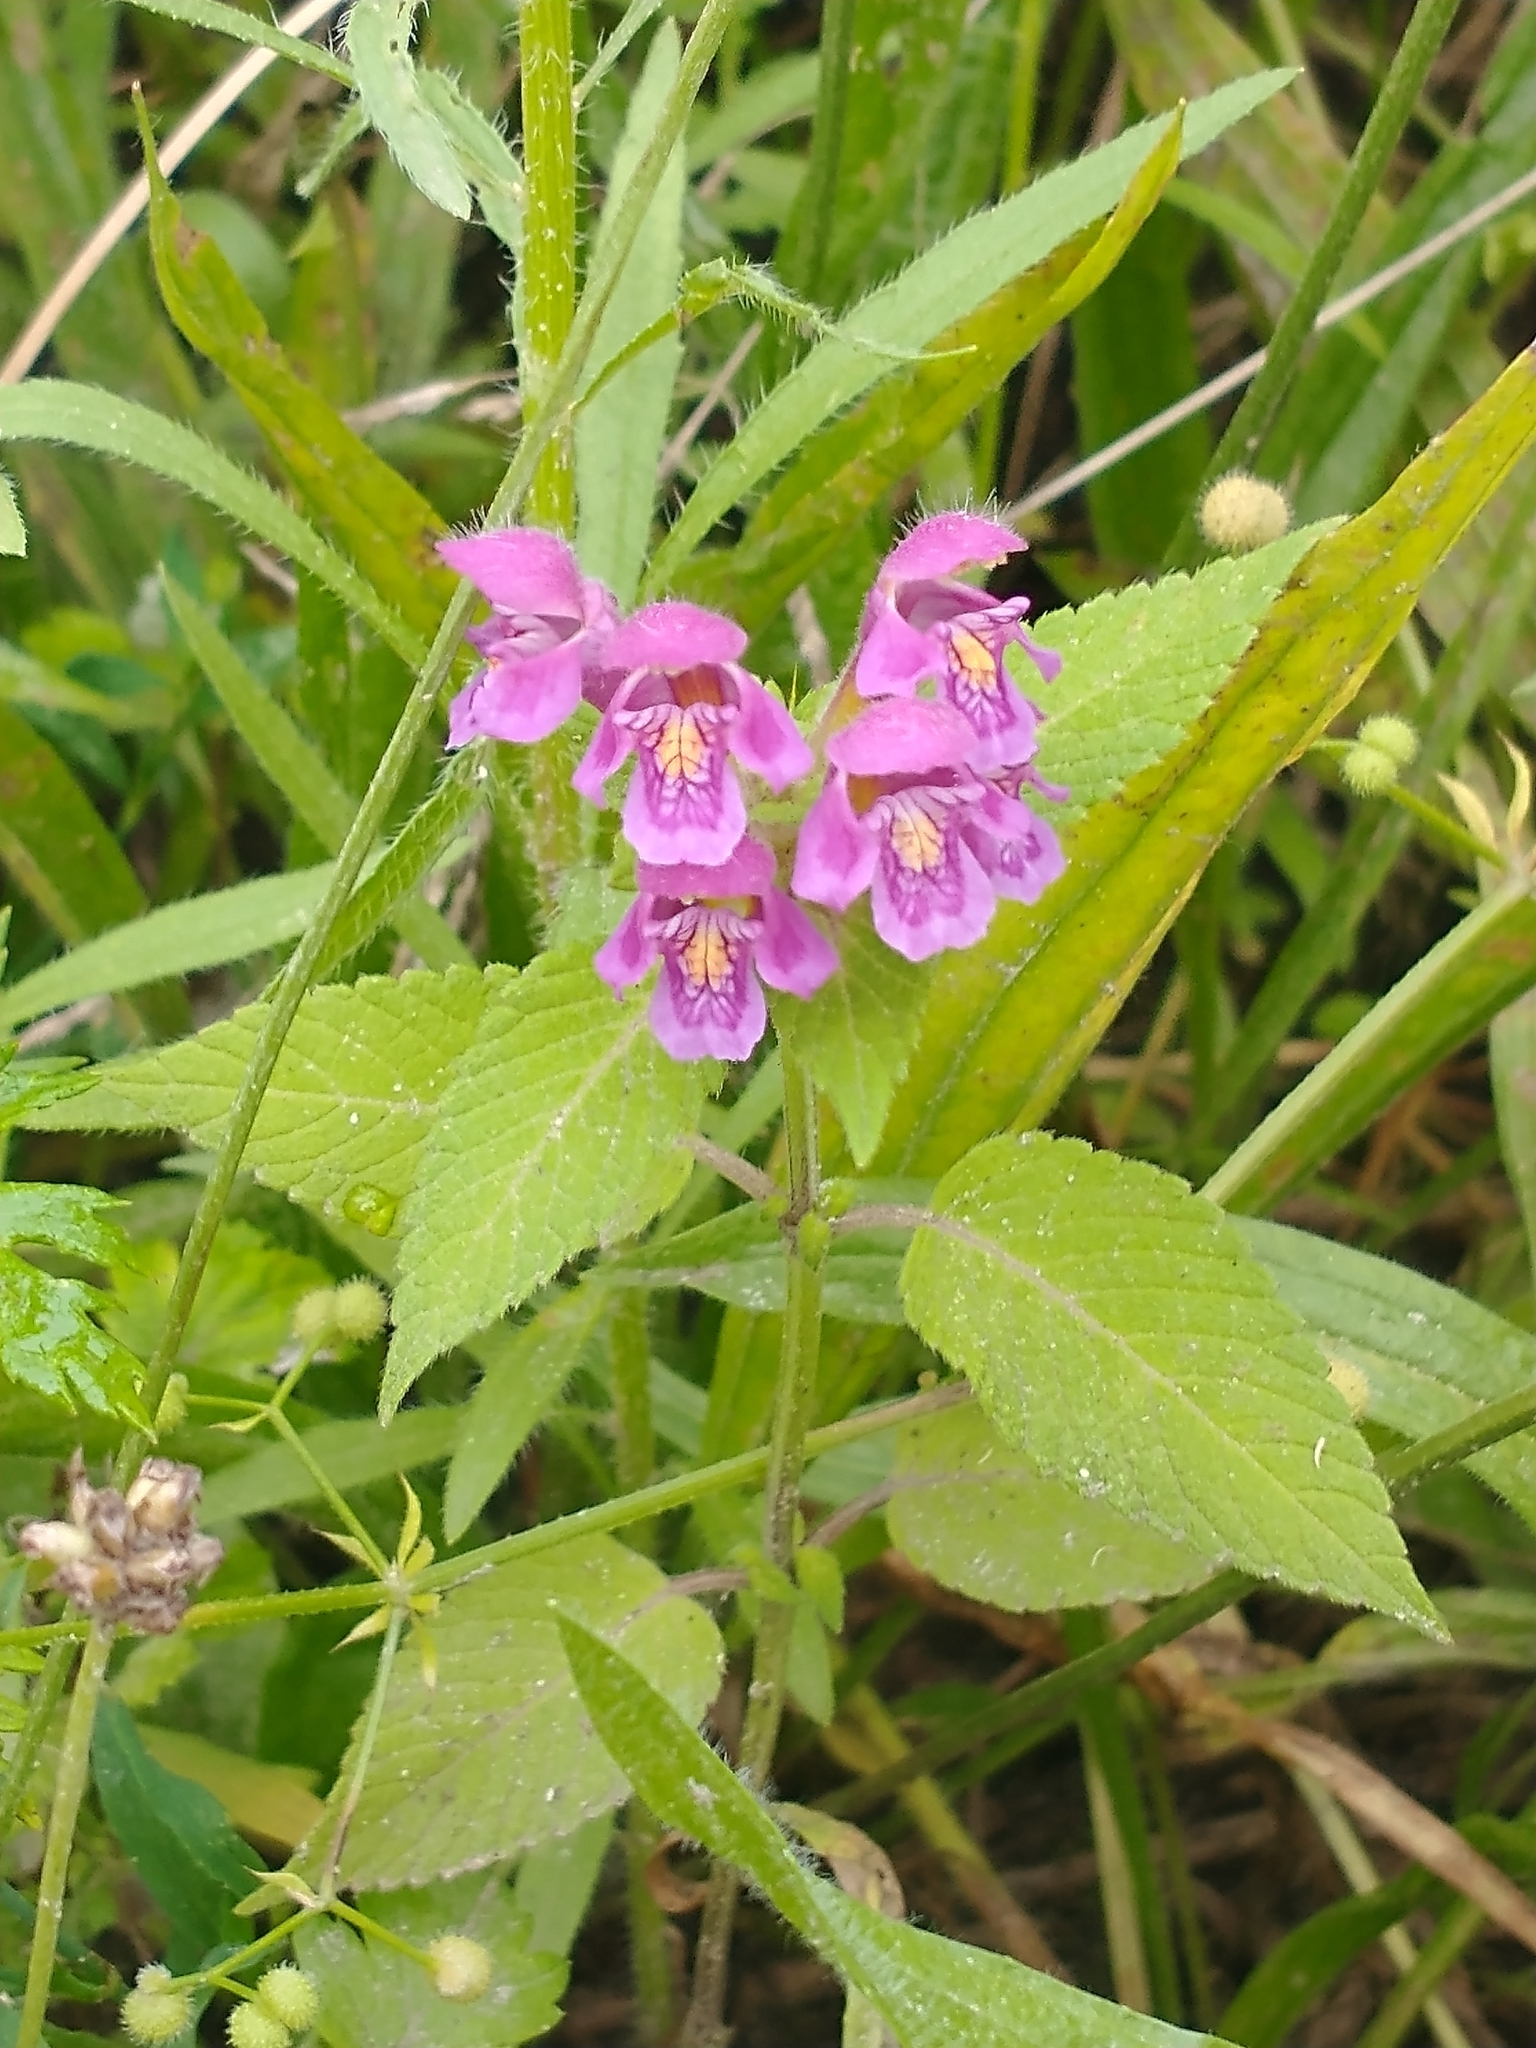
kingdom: Plantae
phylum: Tracheophyta
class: Magnoliopsida
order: Lamiales
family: Lamiaceae
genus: Galeopsis
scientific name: Galeopsis pubescens
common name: Downy hemp-nettle
